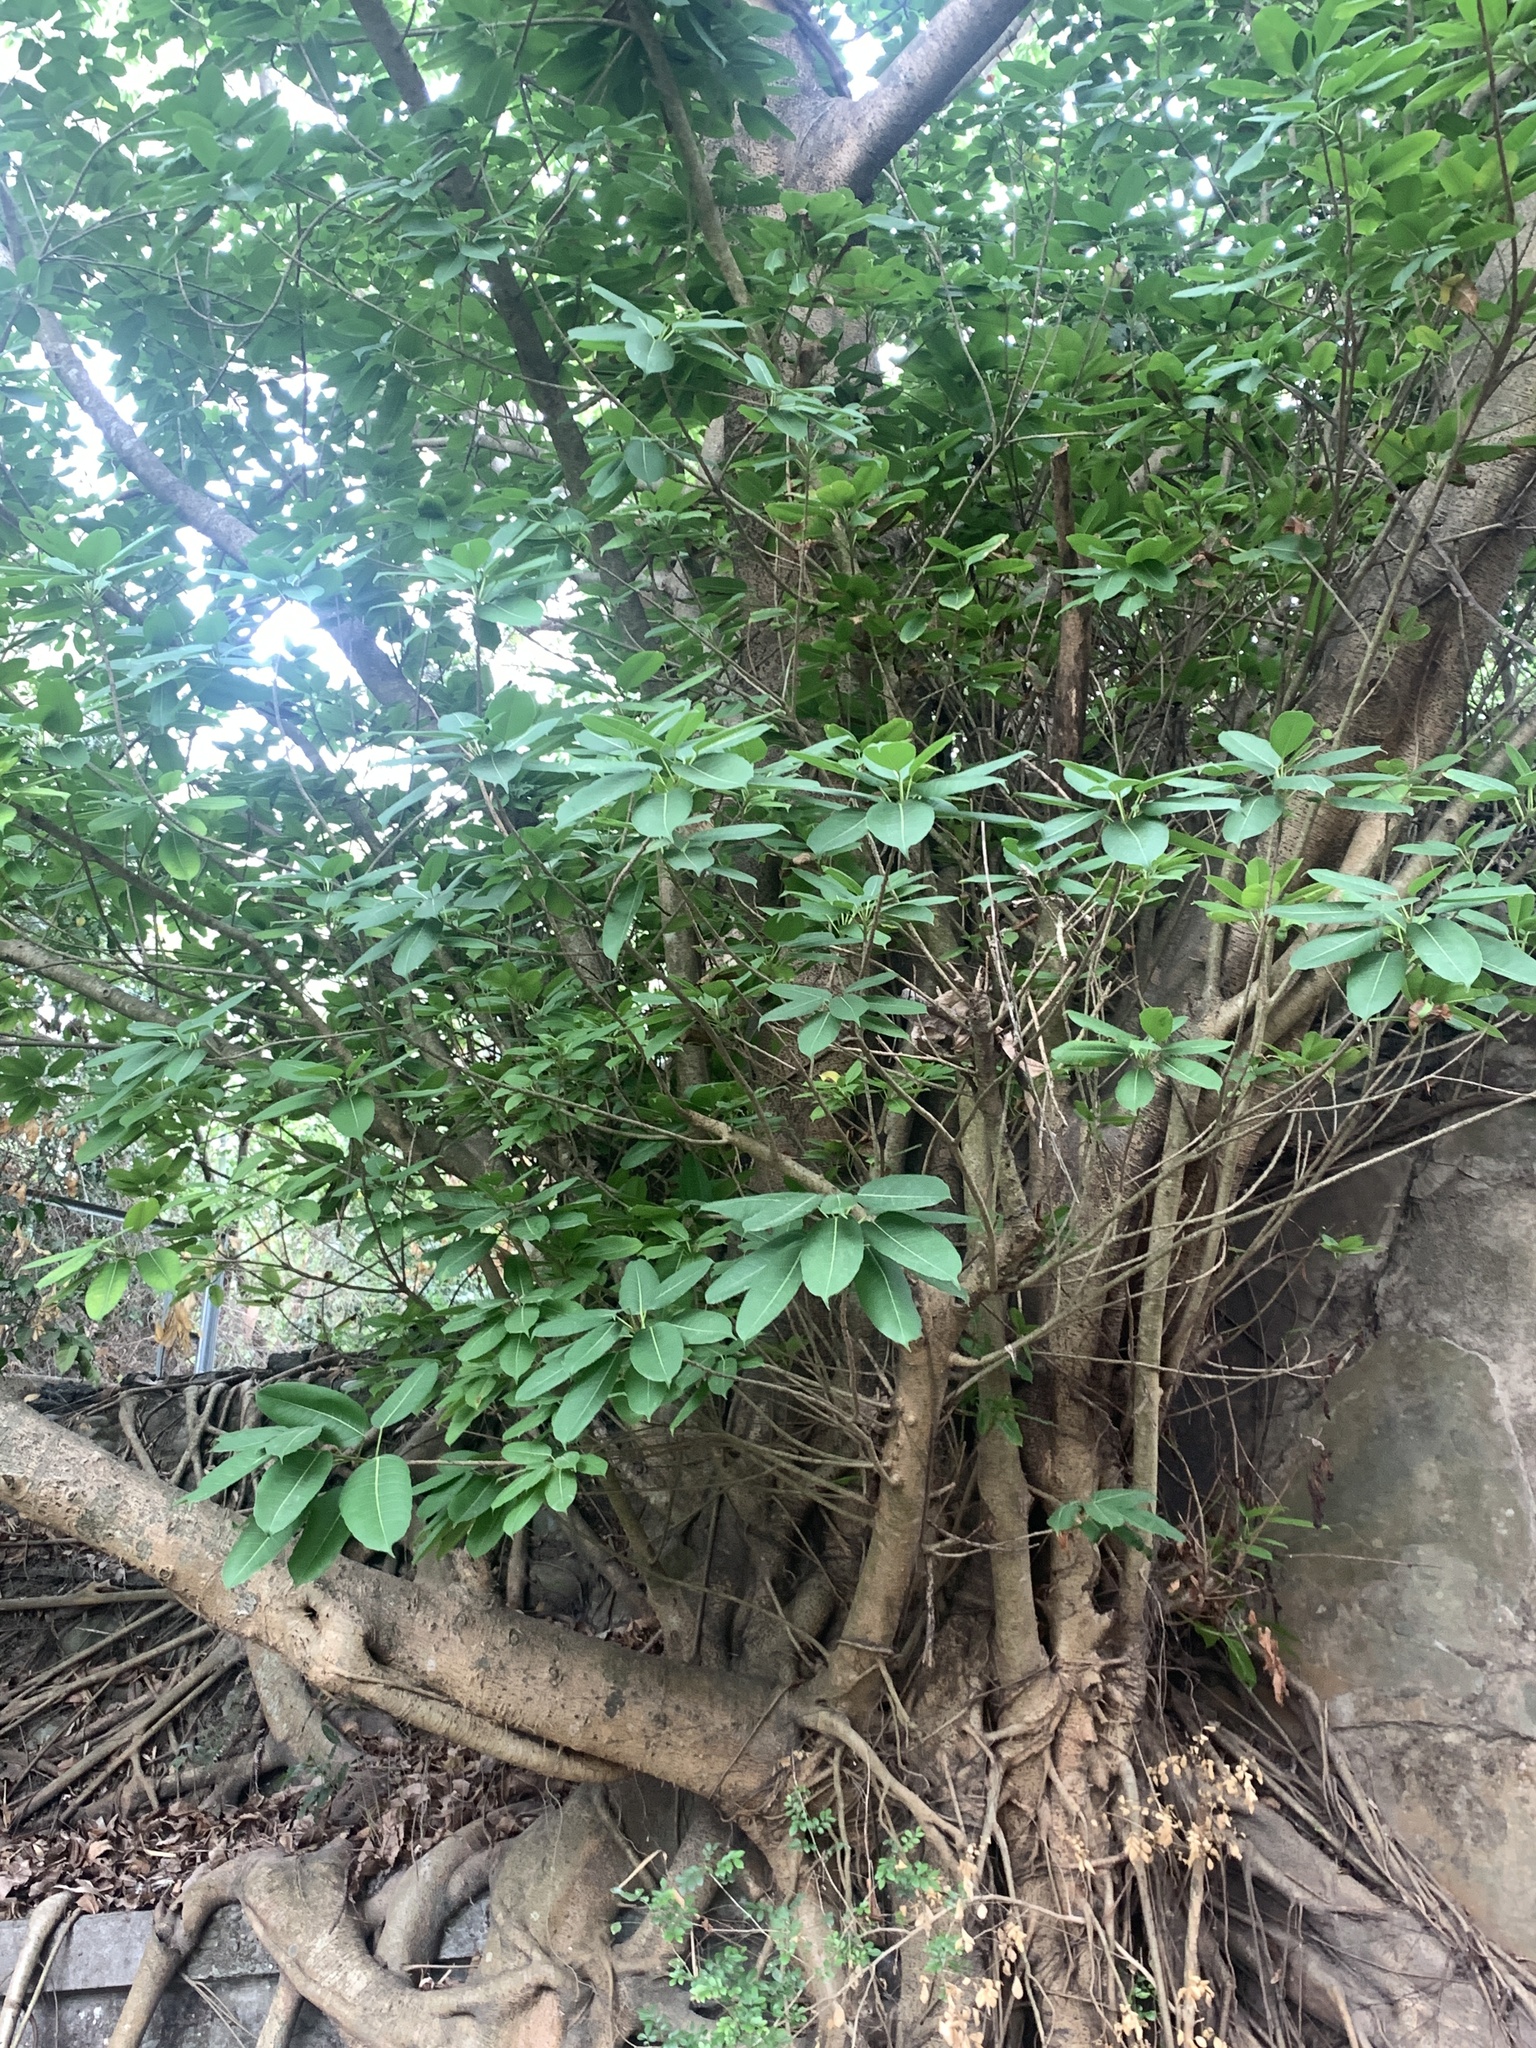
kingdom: Plantae
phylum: Tracheophyta
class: Magnoliopsida
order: Rosales
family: Moraceae
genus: Ficus
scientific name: Ficus caulocarpa
